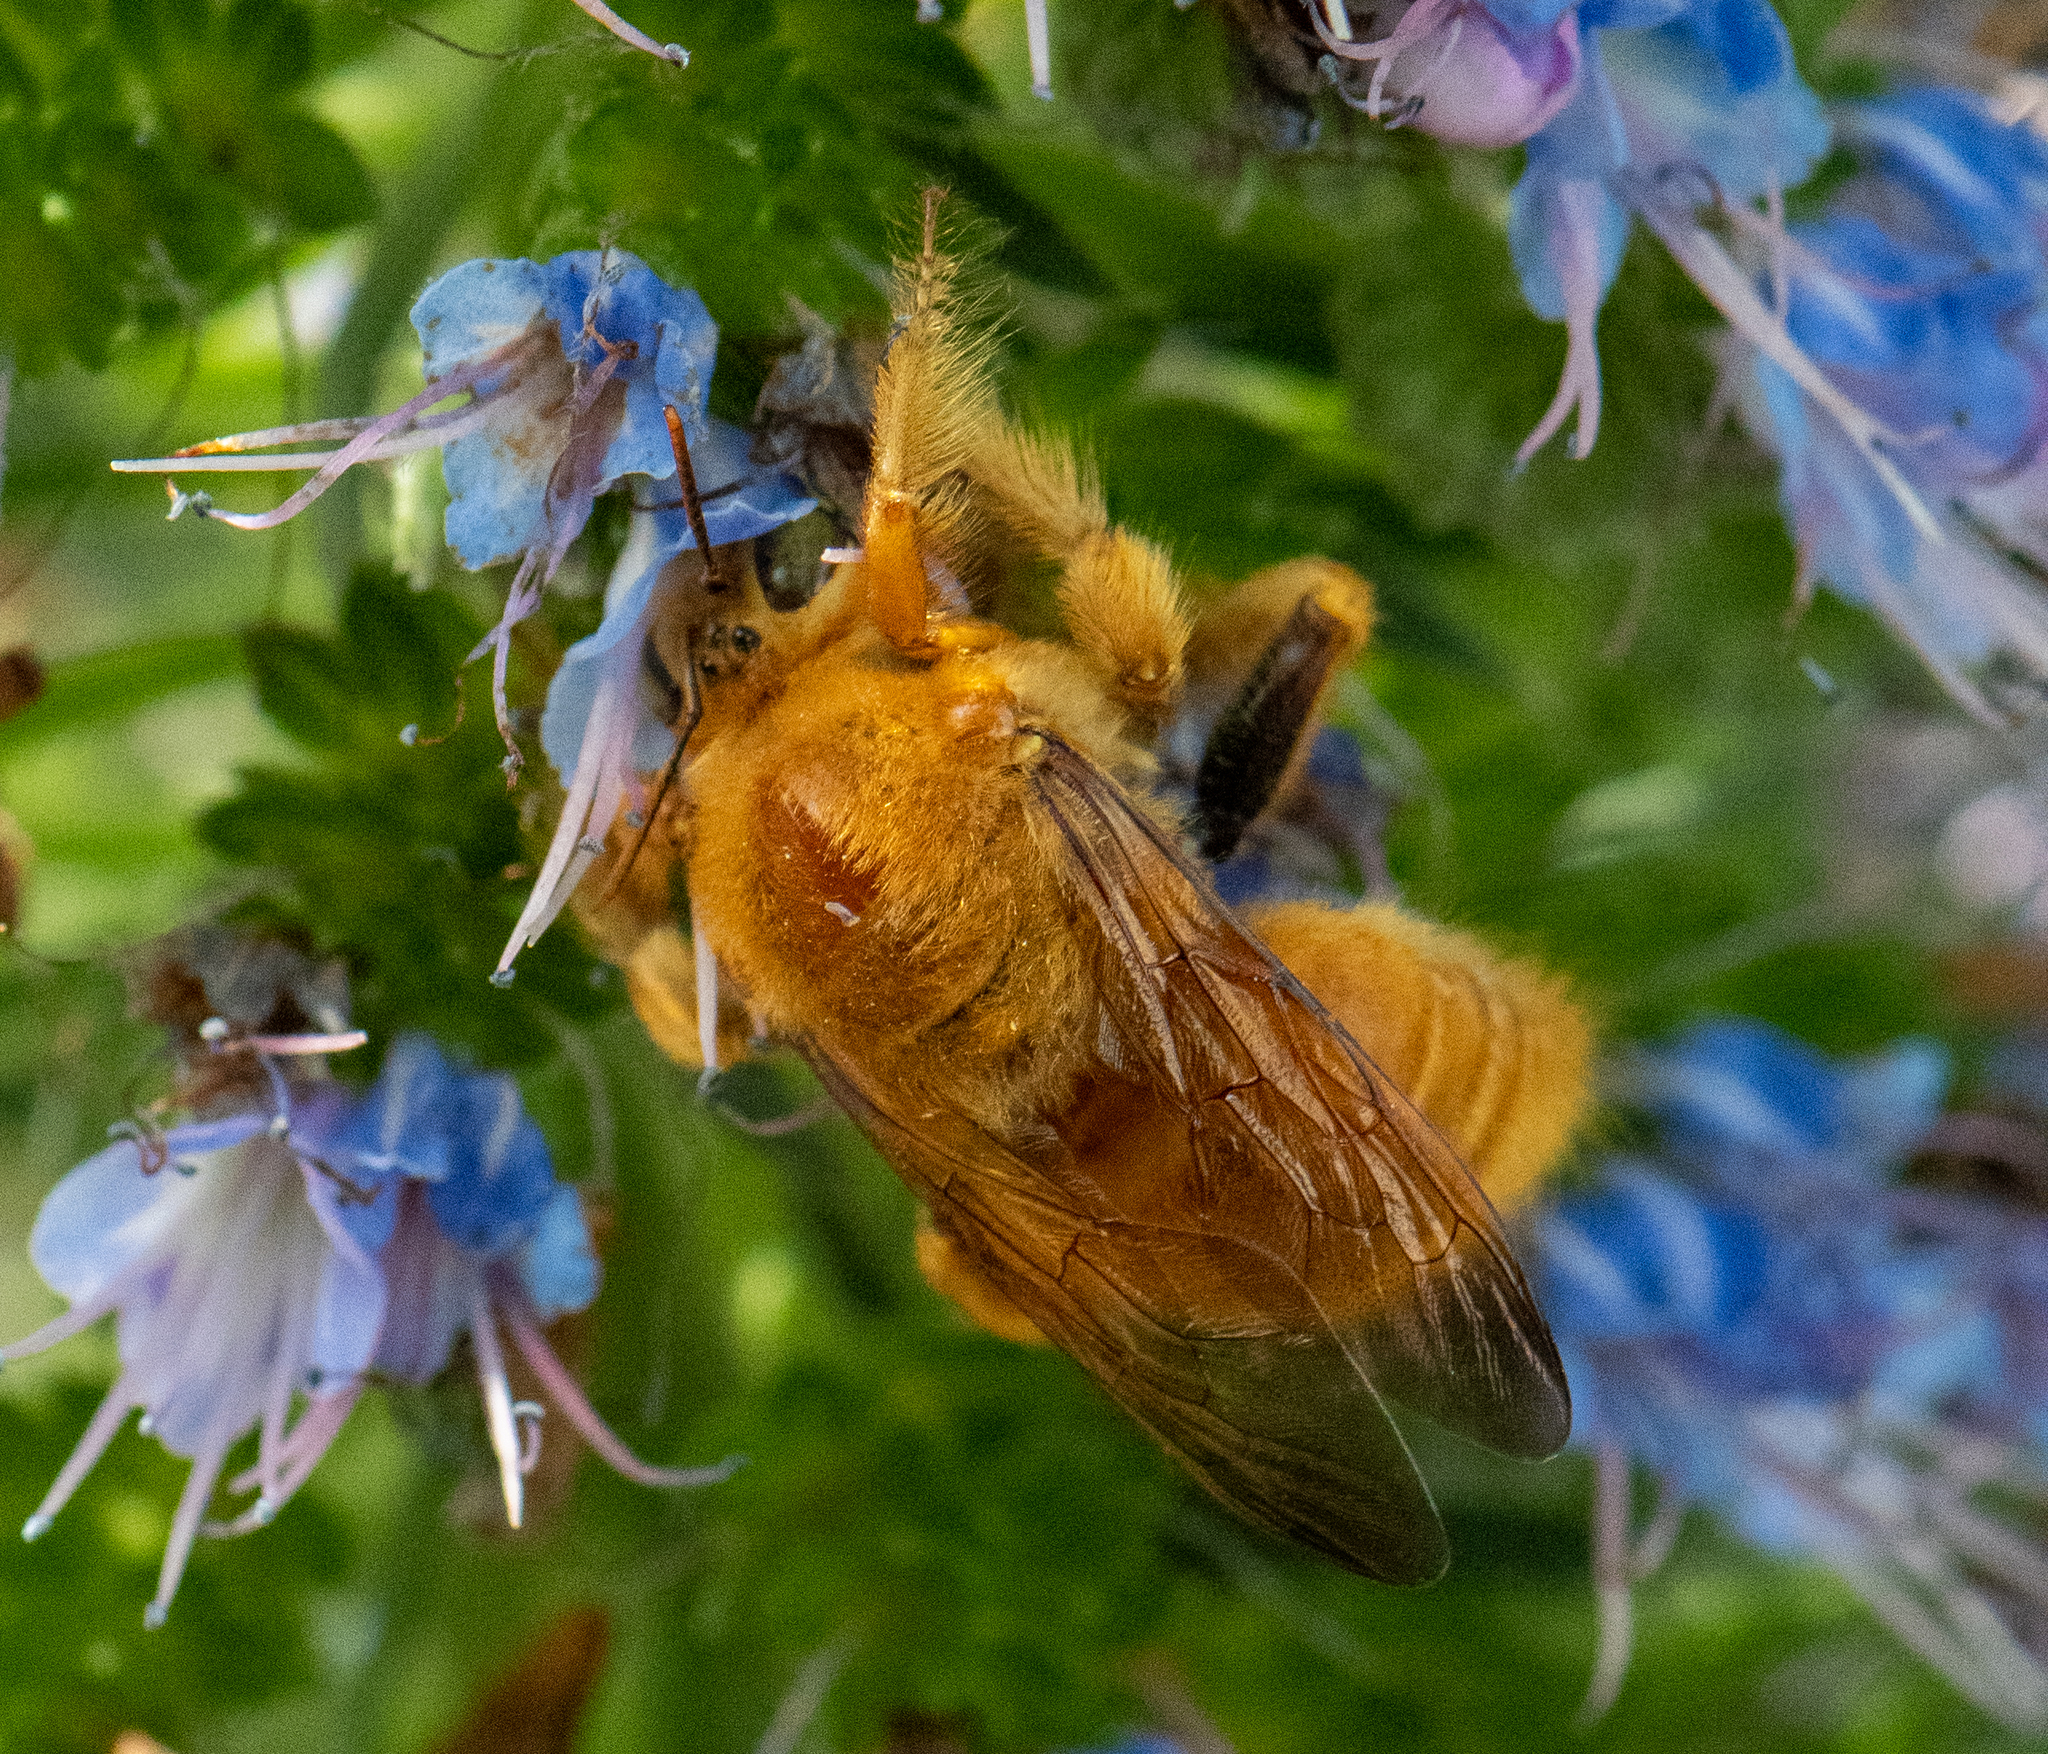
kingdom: Animalia
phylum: Arthropoda
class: Insecta
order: Hymenoptera
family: Apidae
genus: Xylocopa
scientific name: Xylocopa sonorina
